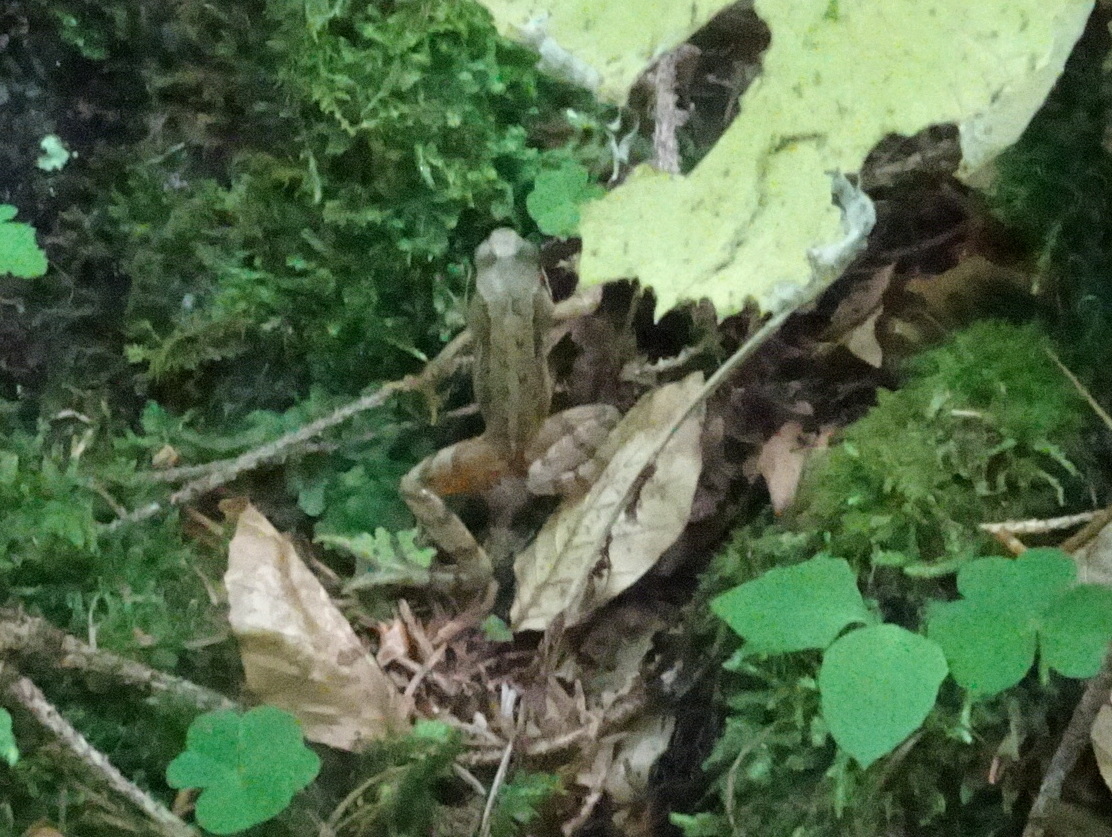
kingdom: Animalia
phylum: Chordata
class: Amphibia
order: Anura
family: Ranidae
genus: Rana
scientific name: Rana temporaria
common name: Common frog
